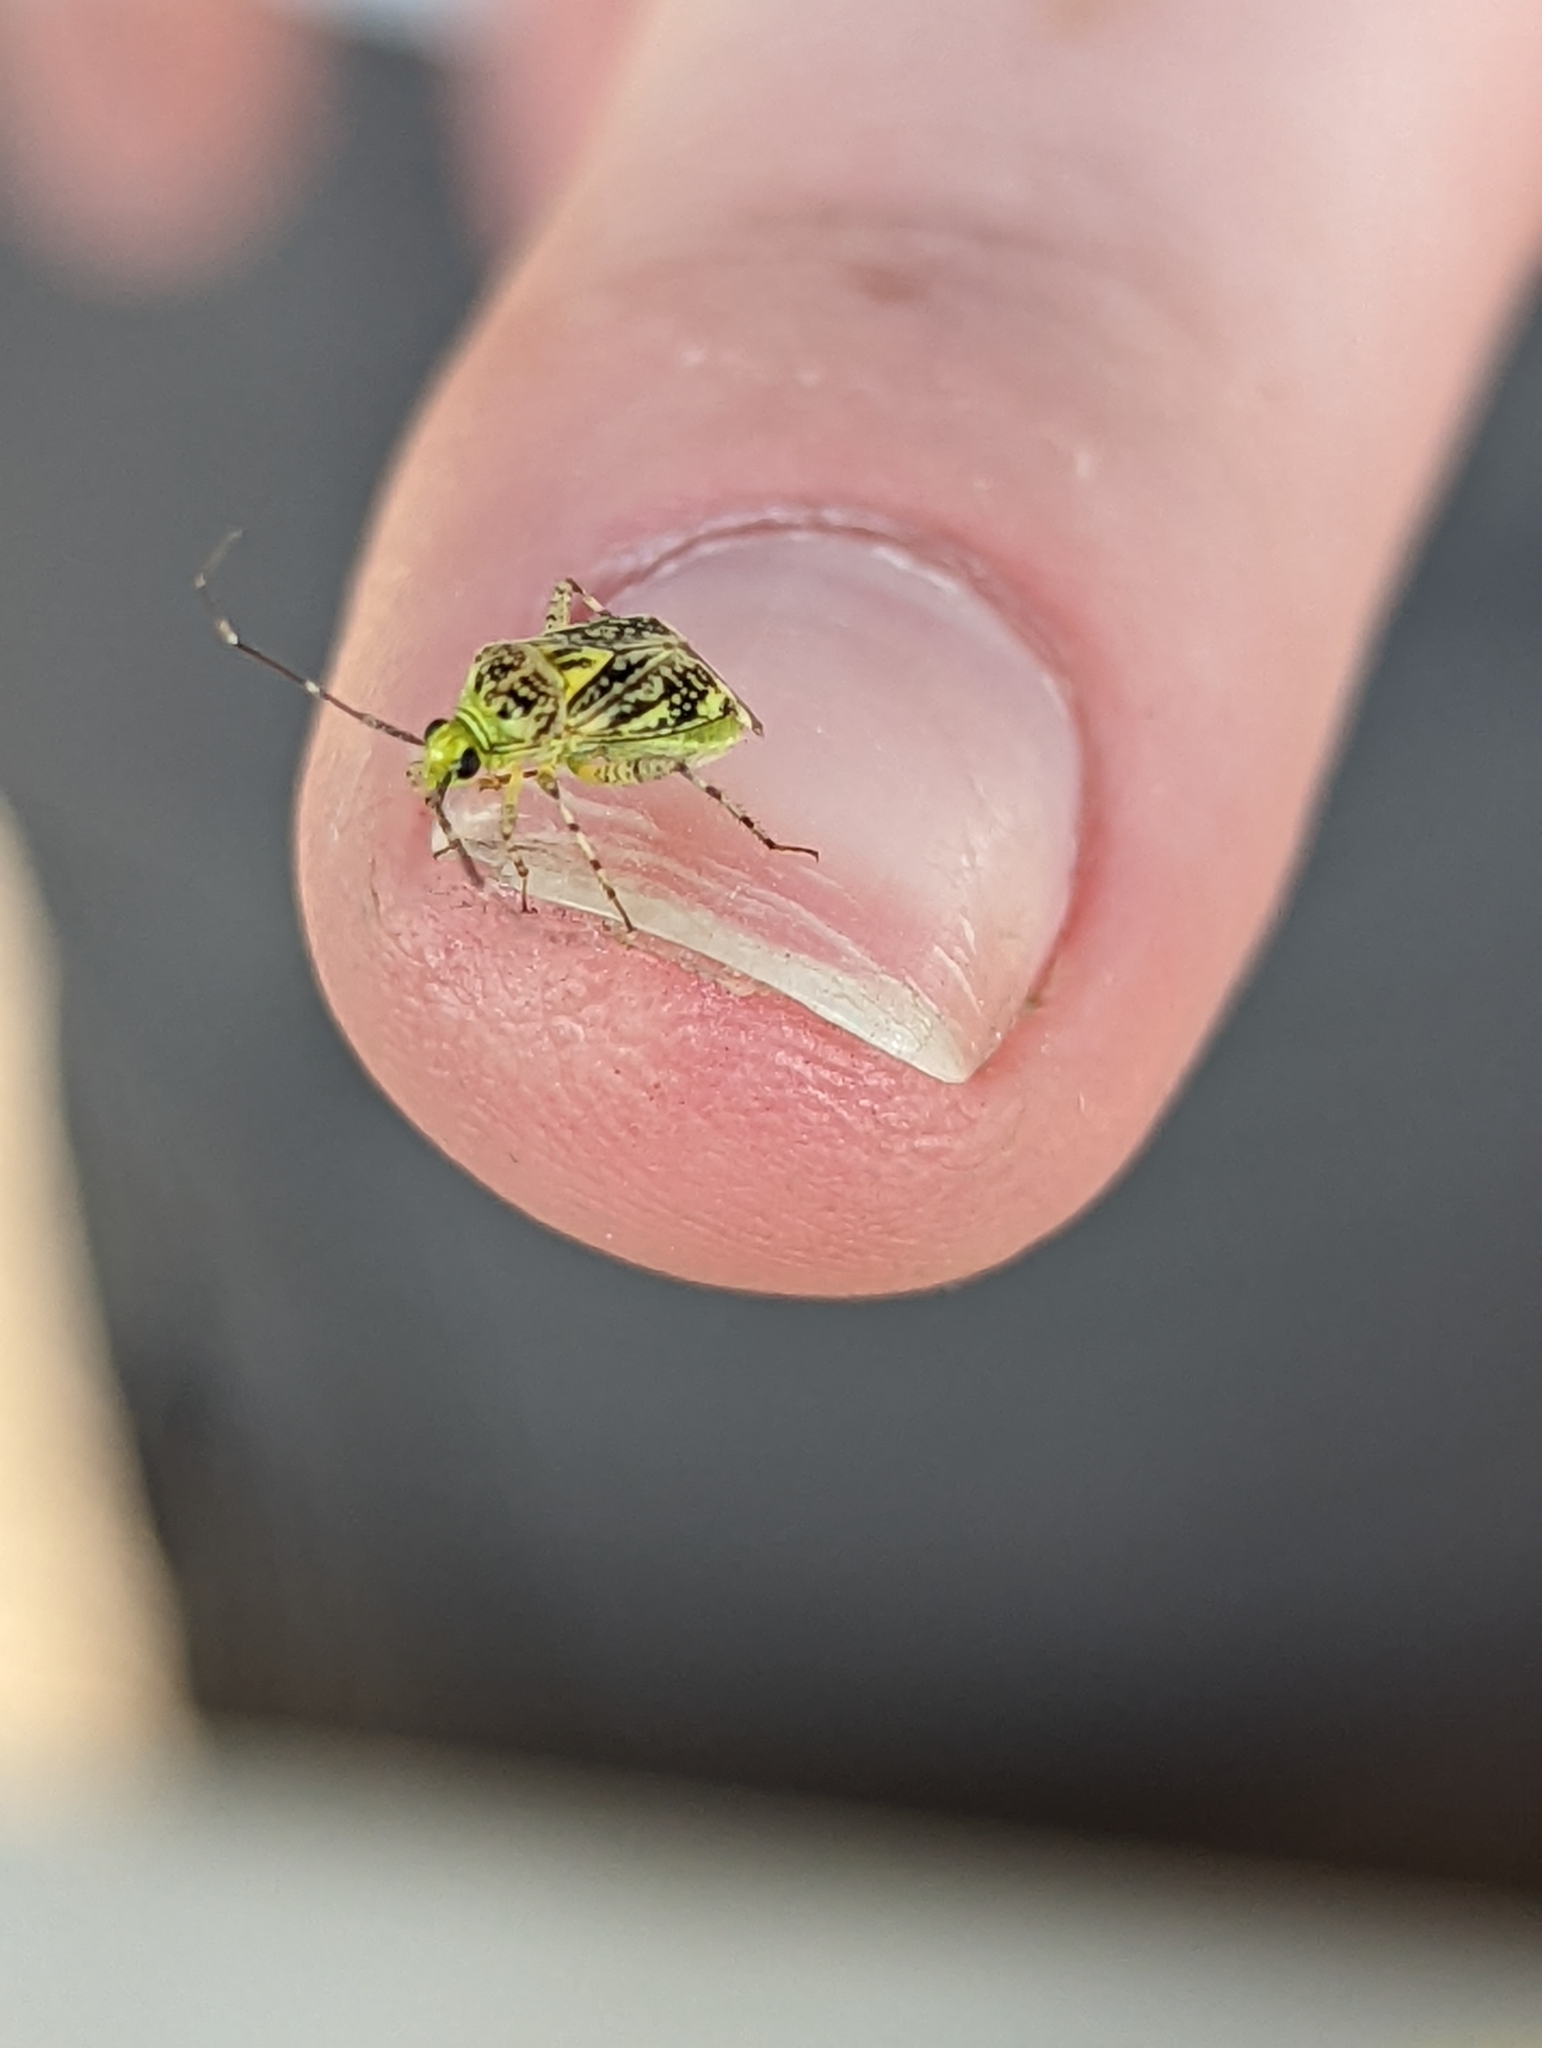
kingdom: Animalia
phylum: Arthropoda
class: Insecta
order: Hemiptera
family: Miridae
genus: Taedia
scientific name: Taedia marmorata
